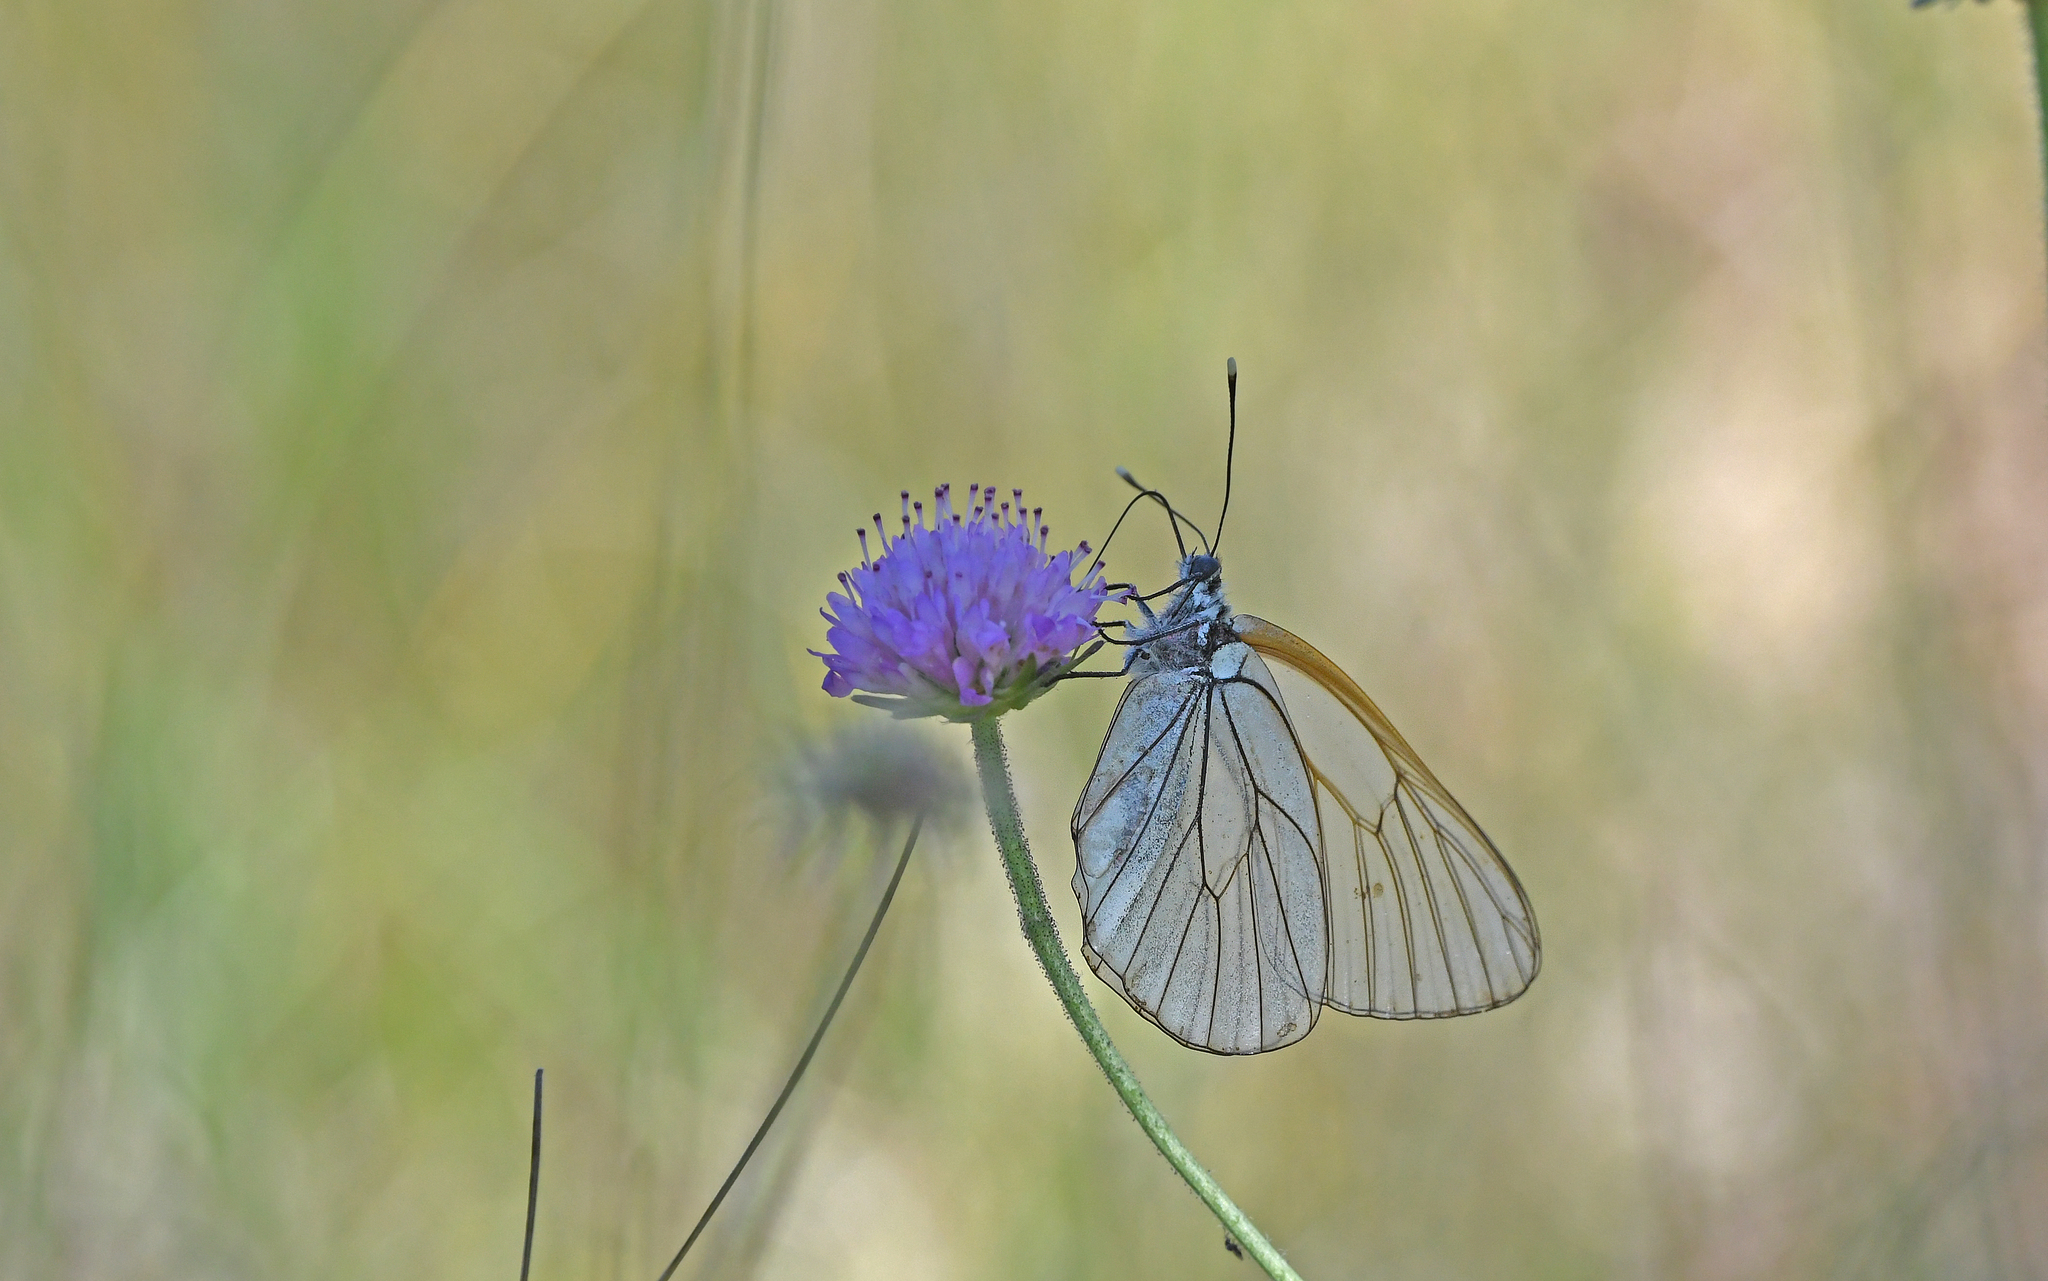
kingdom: Animalia
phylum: Arthropoda
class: Insecta
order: Lepidoptera
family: Pieridae
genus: Aporia
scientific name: Aporia crataegi
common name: Black-veined white
